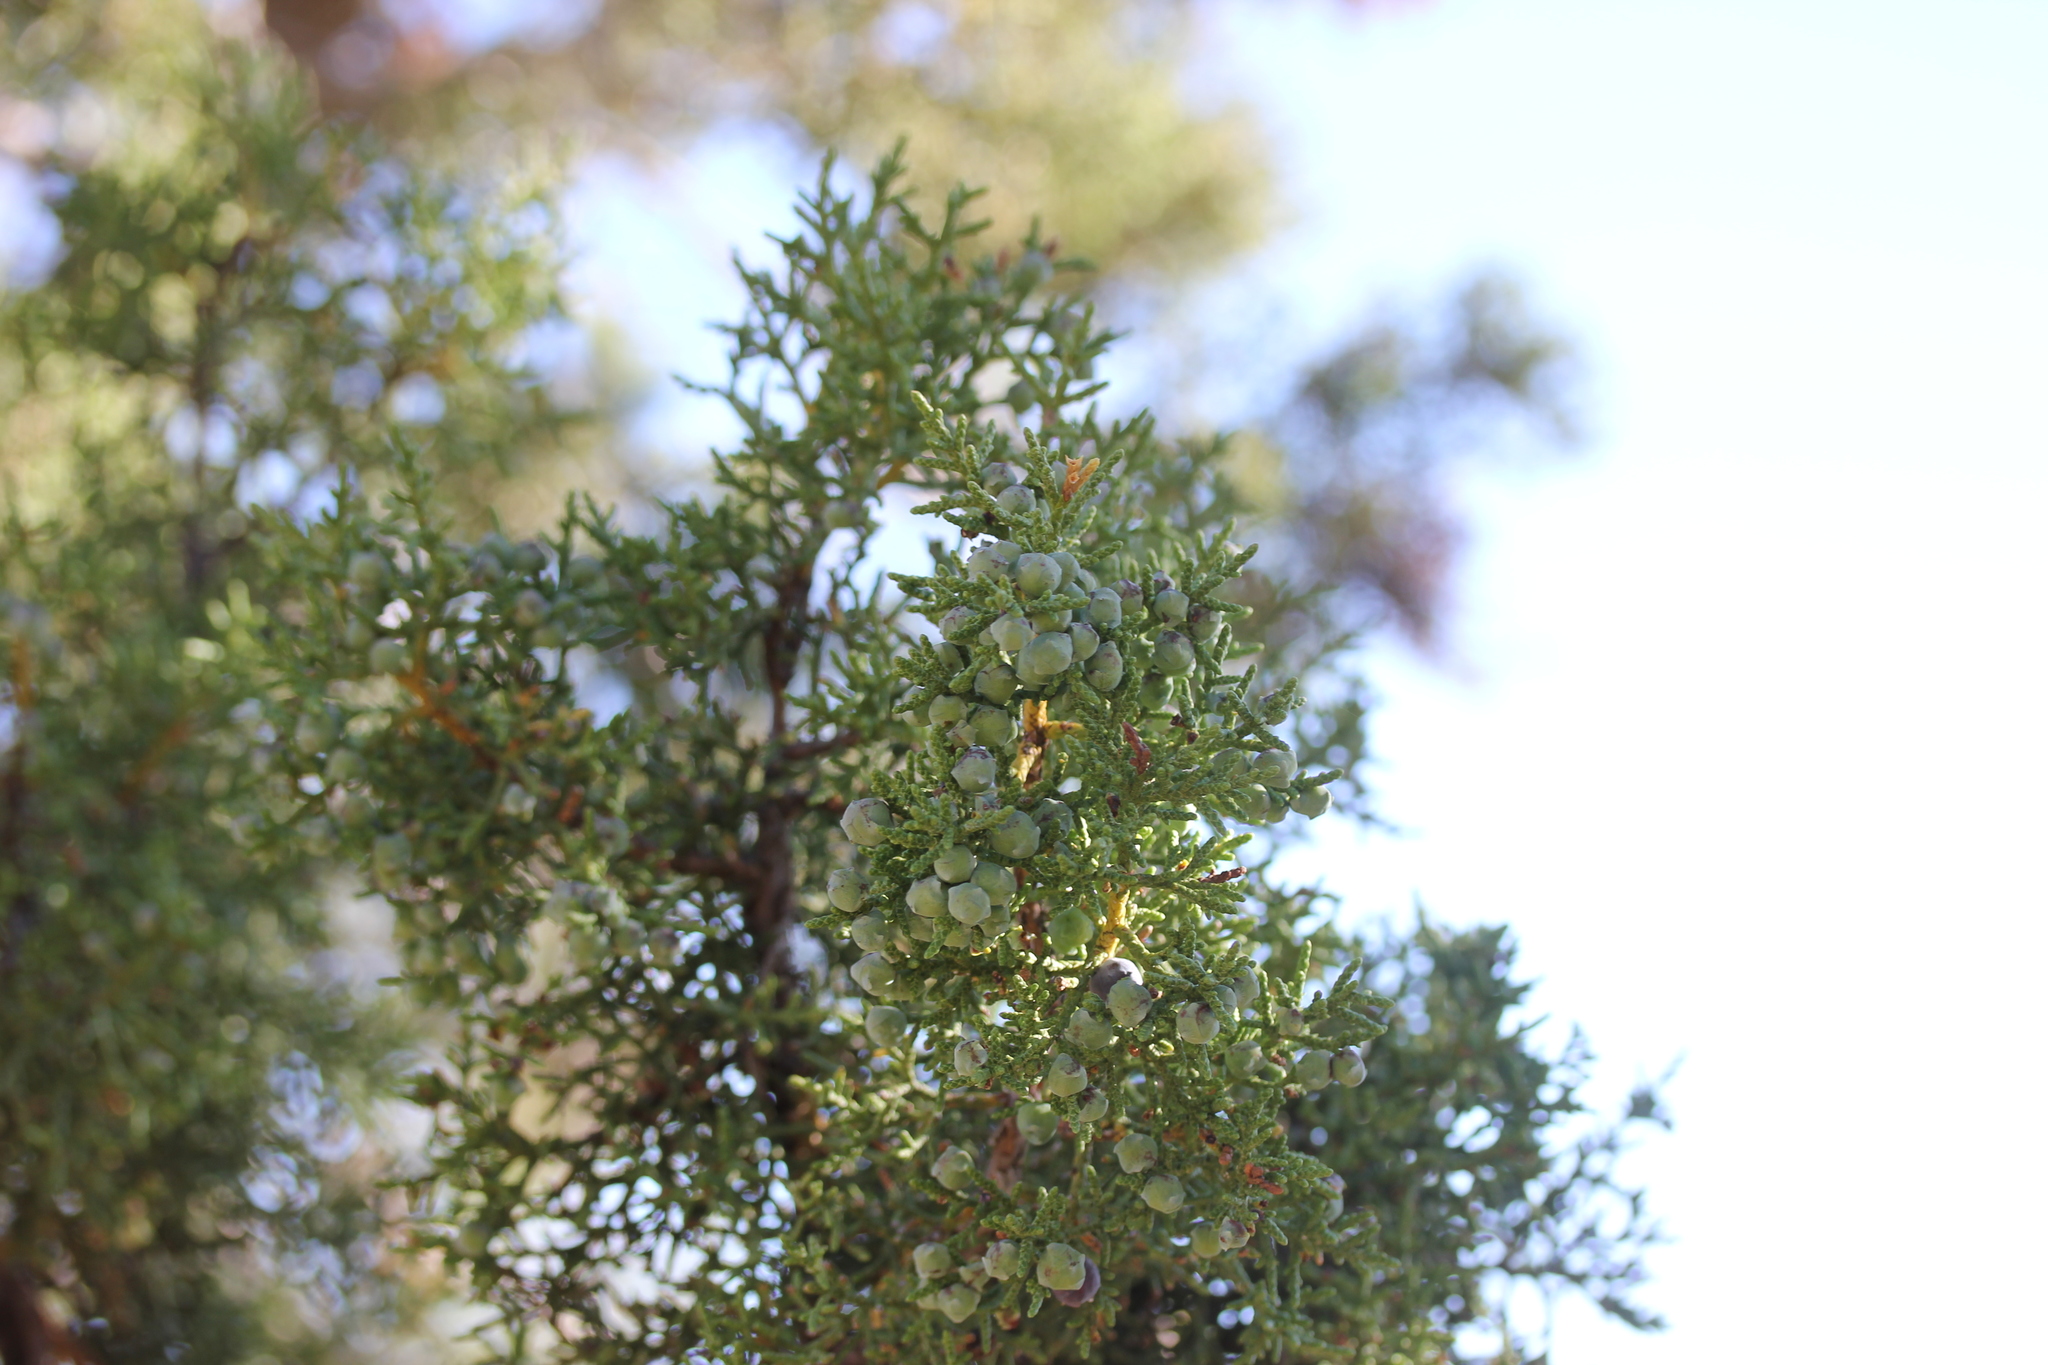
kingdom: Plantae
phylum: Tracheophyta
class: Pinopsida
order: Pinales
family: Cupressaceae
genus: Juniperus
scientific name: Juniperus osteosperma
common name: Utah juniper
